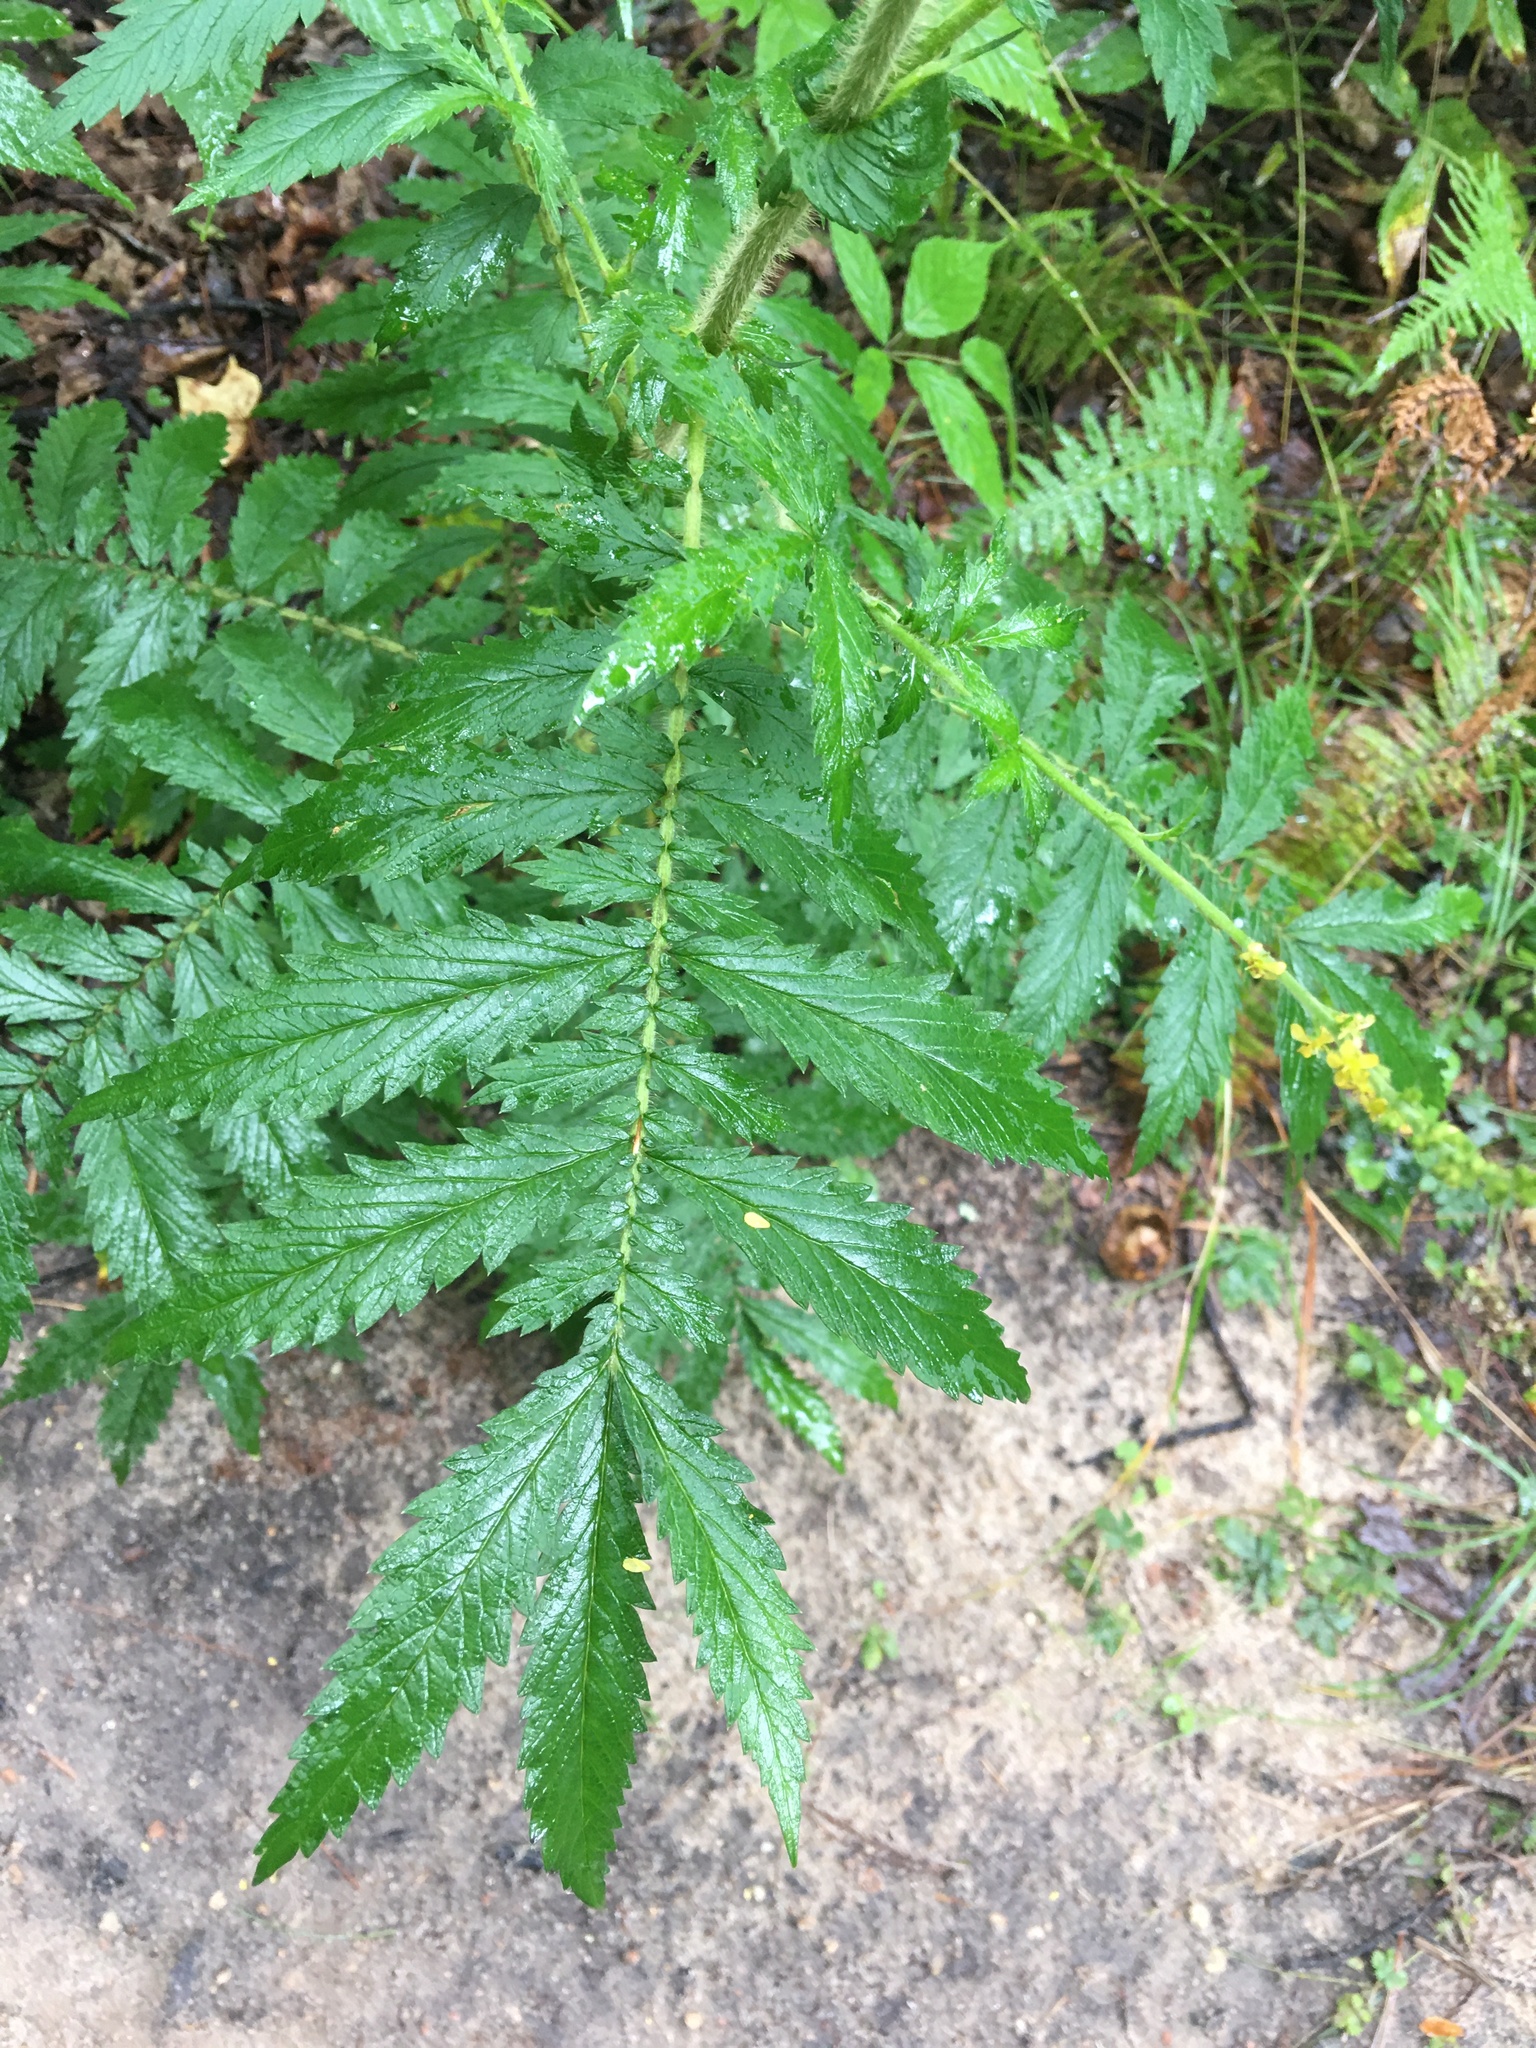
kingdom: Plantae
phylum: Tracheophyta
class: Magnoliopsida
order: Rosales
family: Rosaceae
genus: Agrimonia
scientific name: Agrimonia parviflora
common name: Harvest-lice
